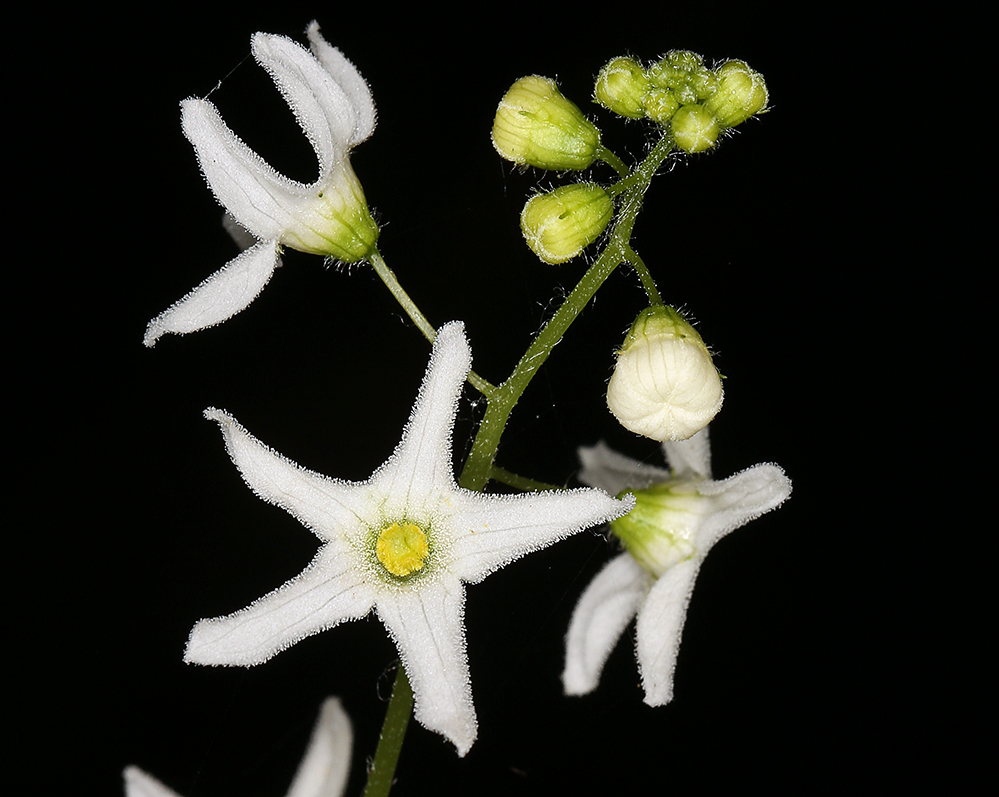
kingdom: Plantae
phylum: Tracheophyta
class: Magnoliopsida
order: Cucurbitales
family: Cucurbitaceae
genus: Marah
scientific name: Marah oregana
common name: Coastal manroot
